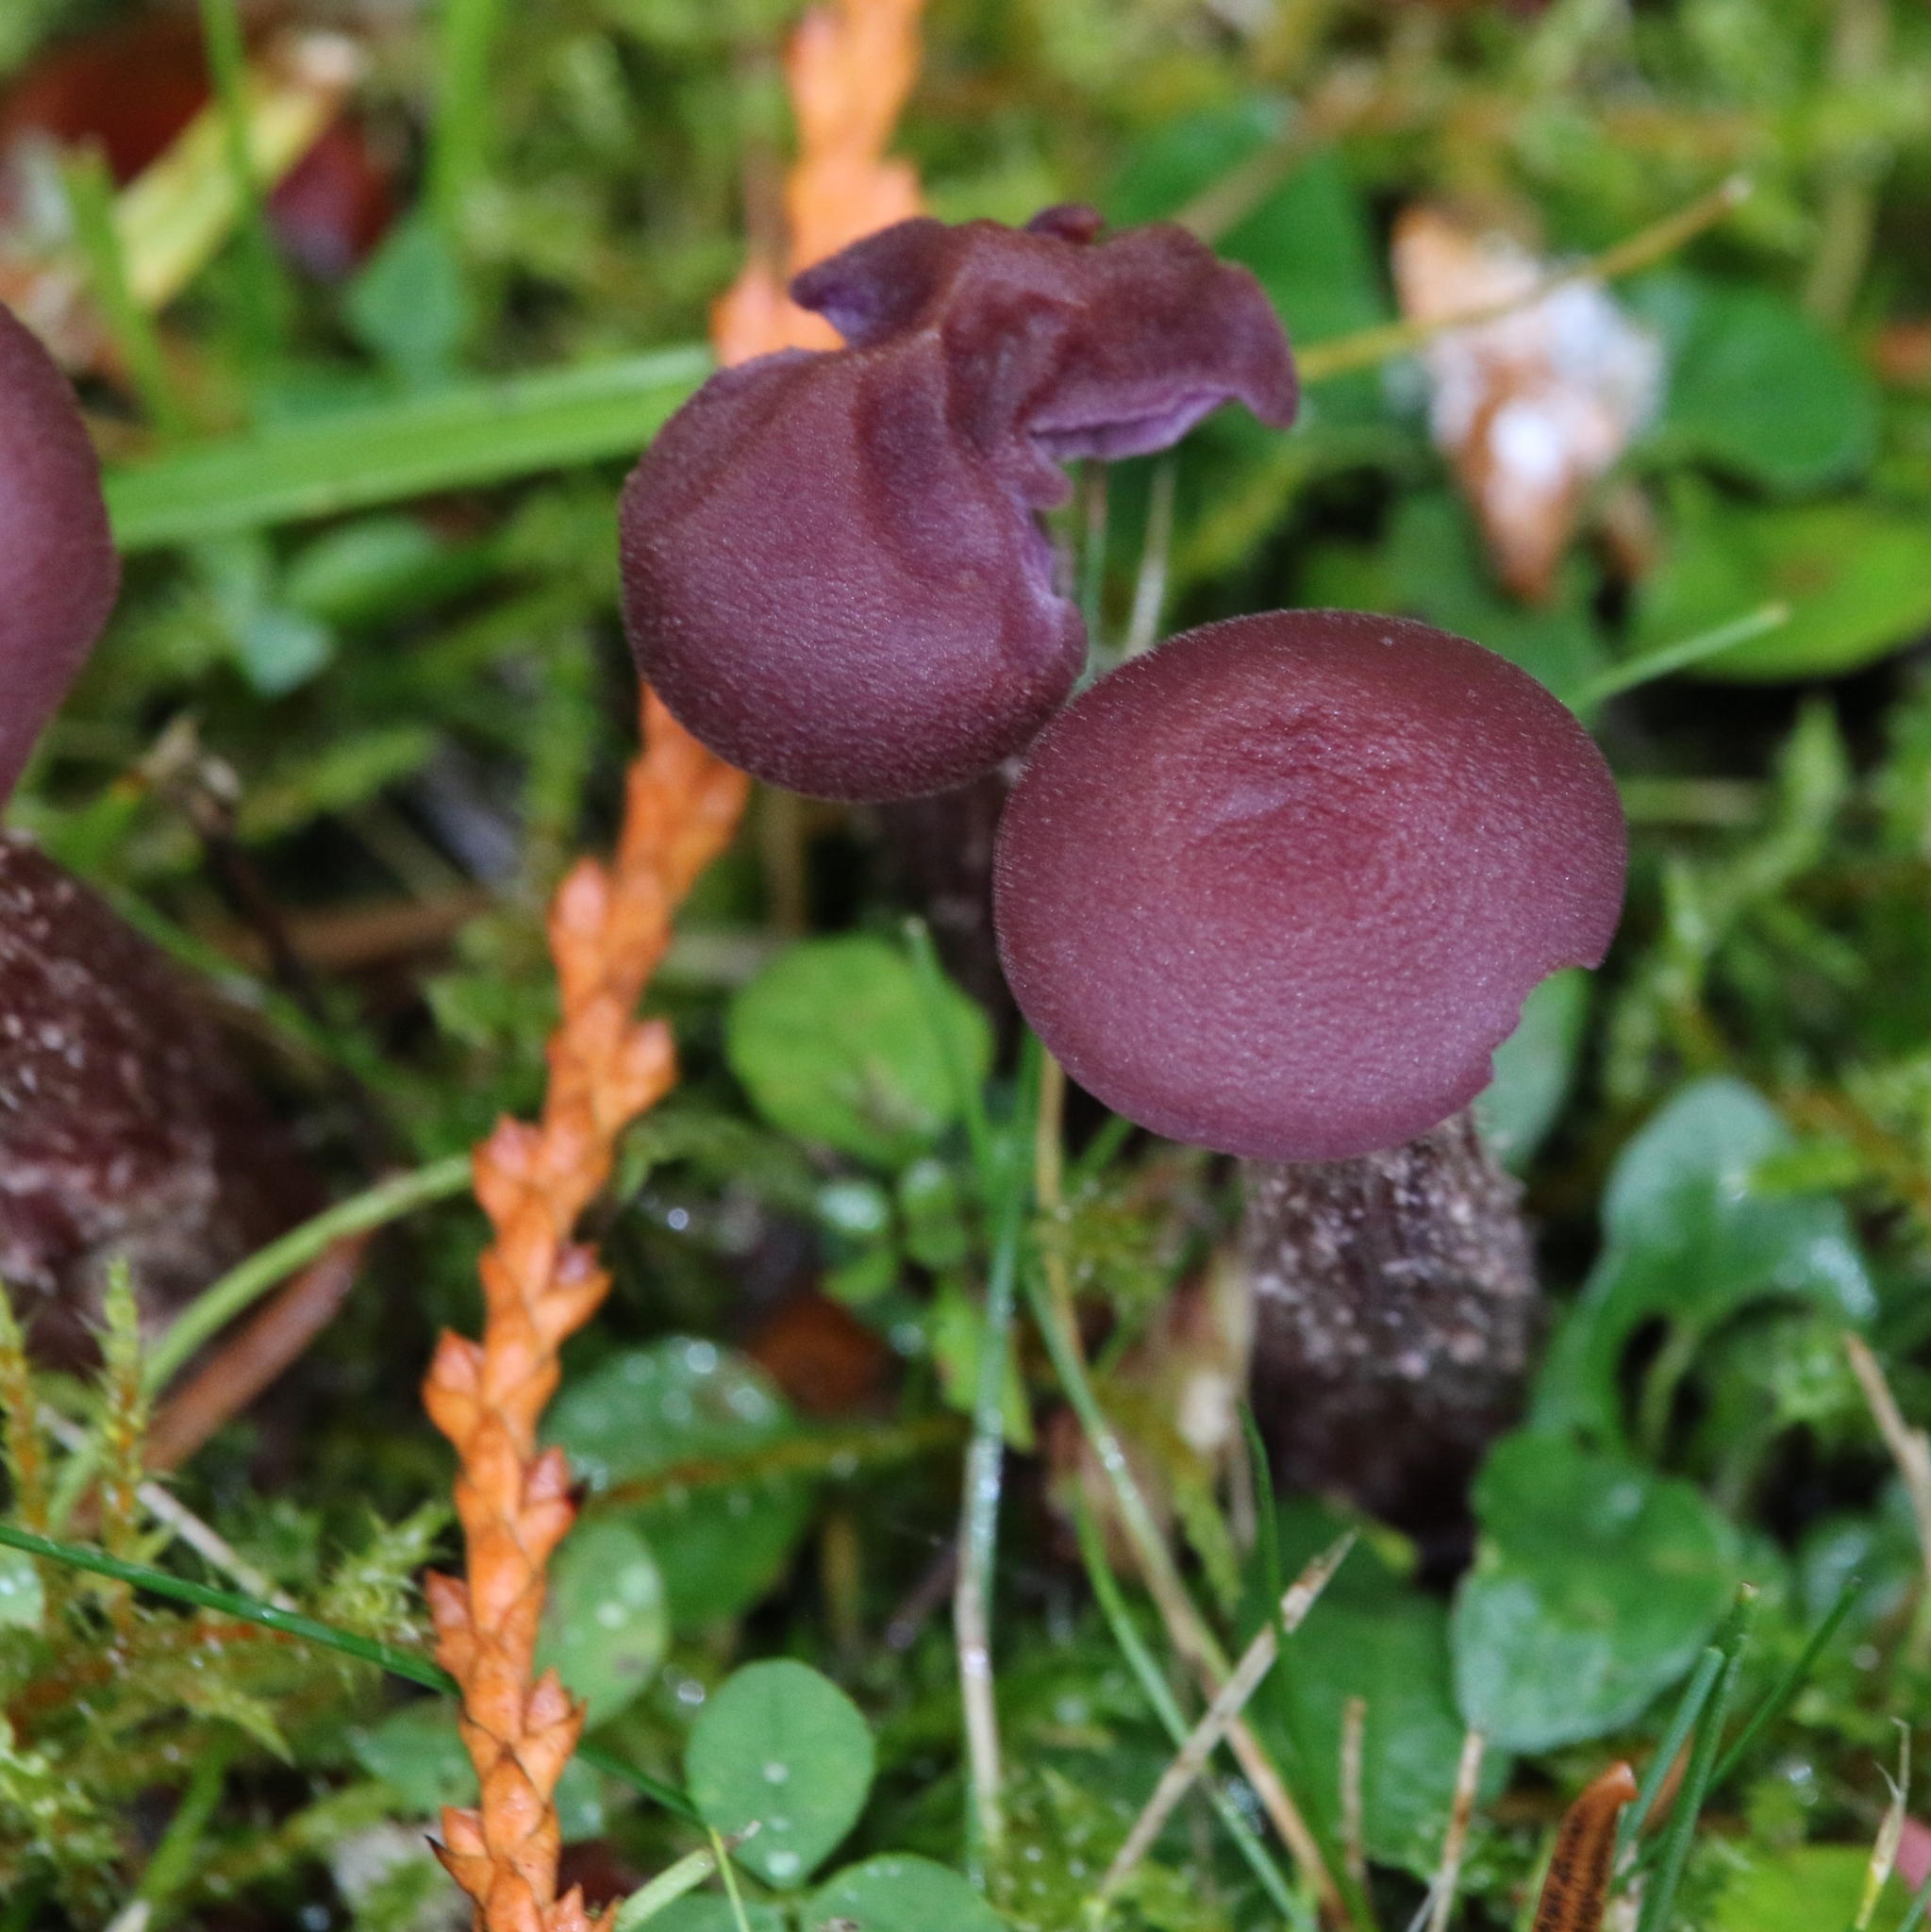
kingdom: Fungi
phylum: Basidiomycota
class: Agaricomycetes
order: Agaricales
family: Hydnangiaceae
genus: Laccaria
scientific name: Laccaria amethysteo-occidentalis
